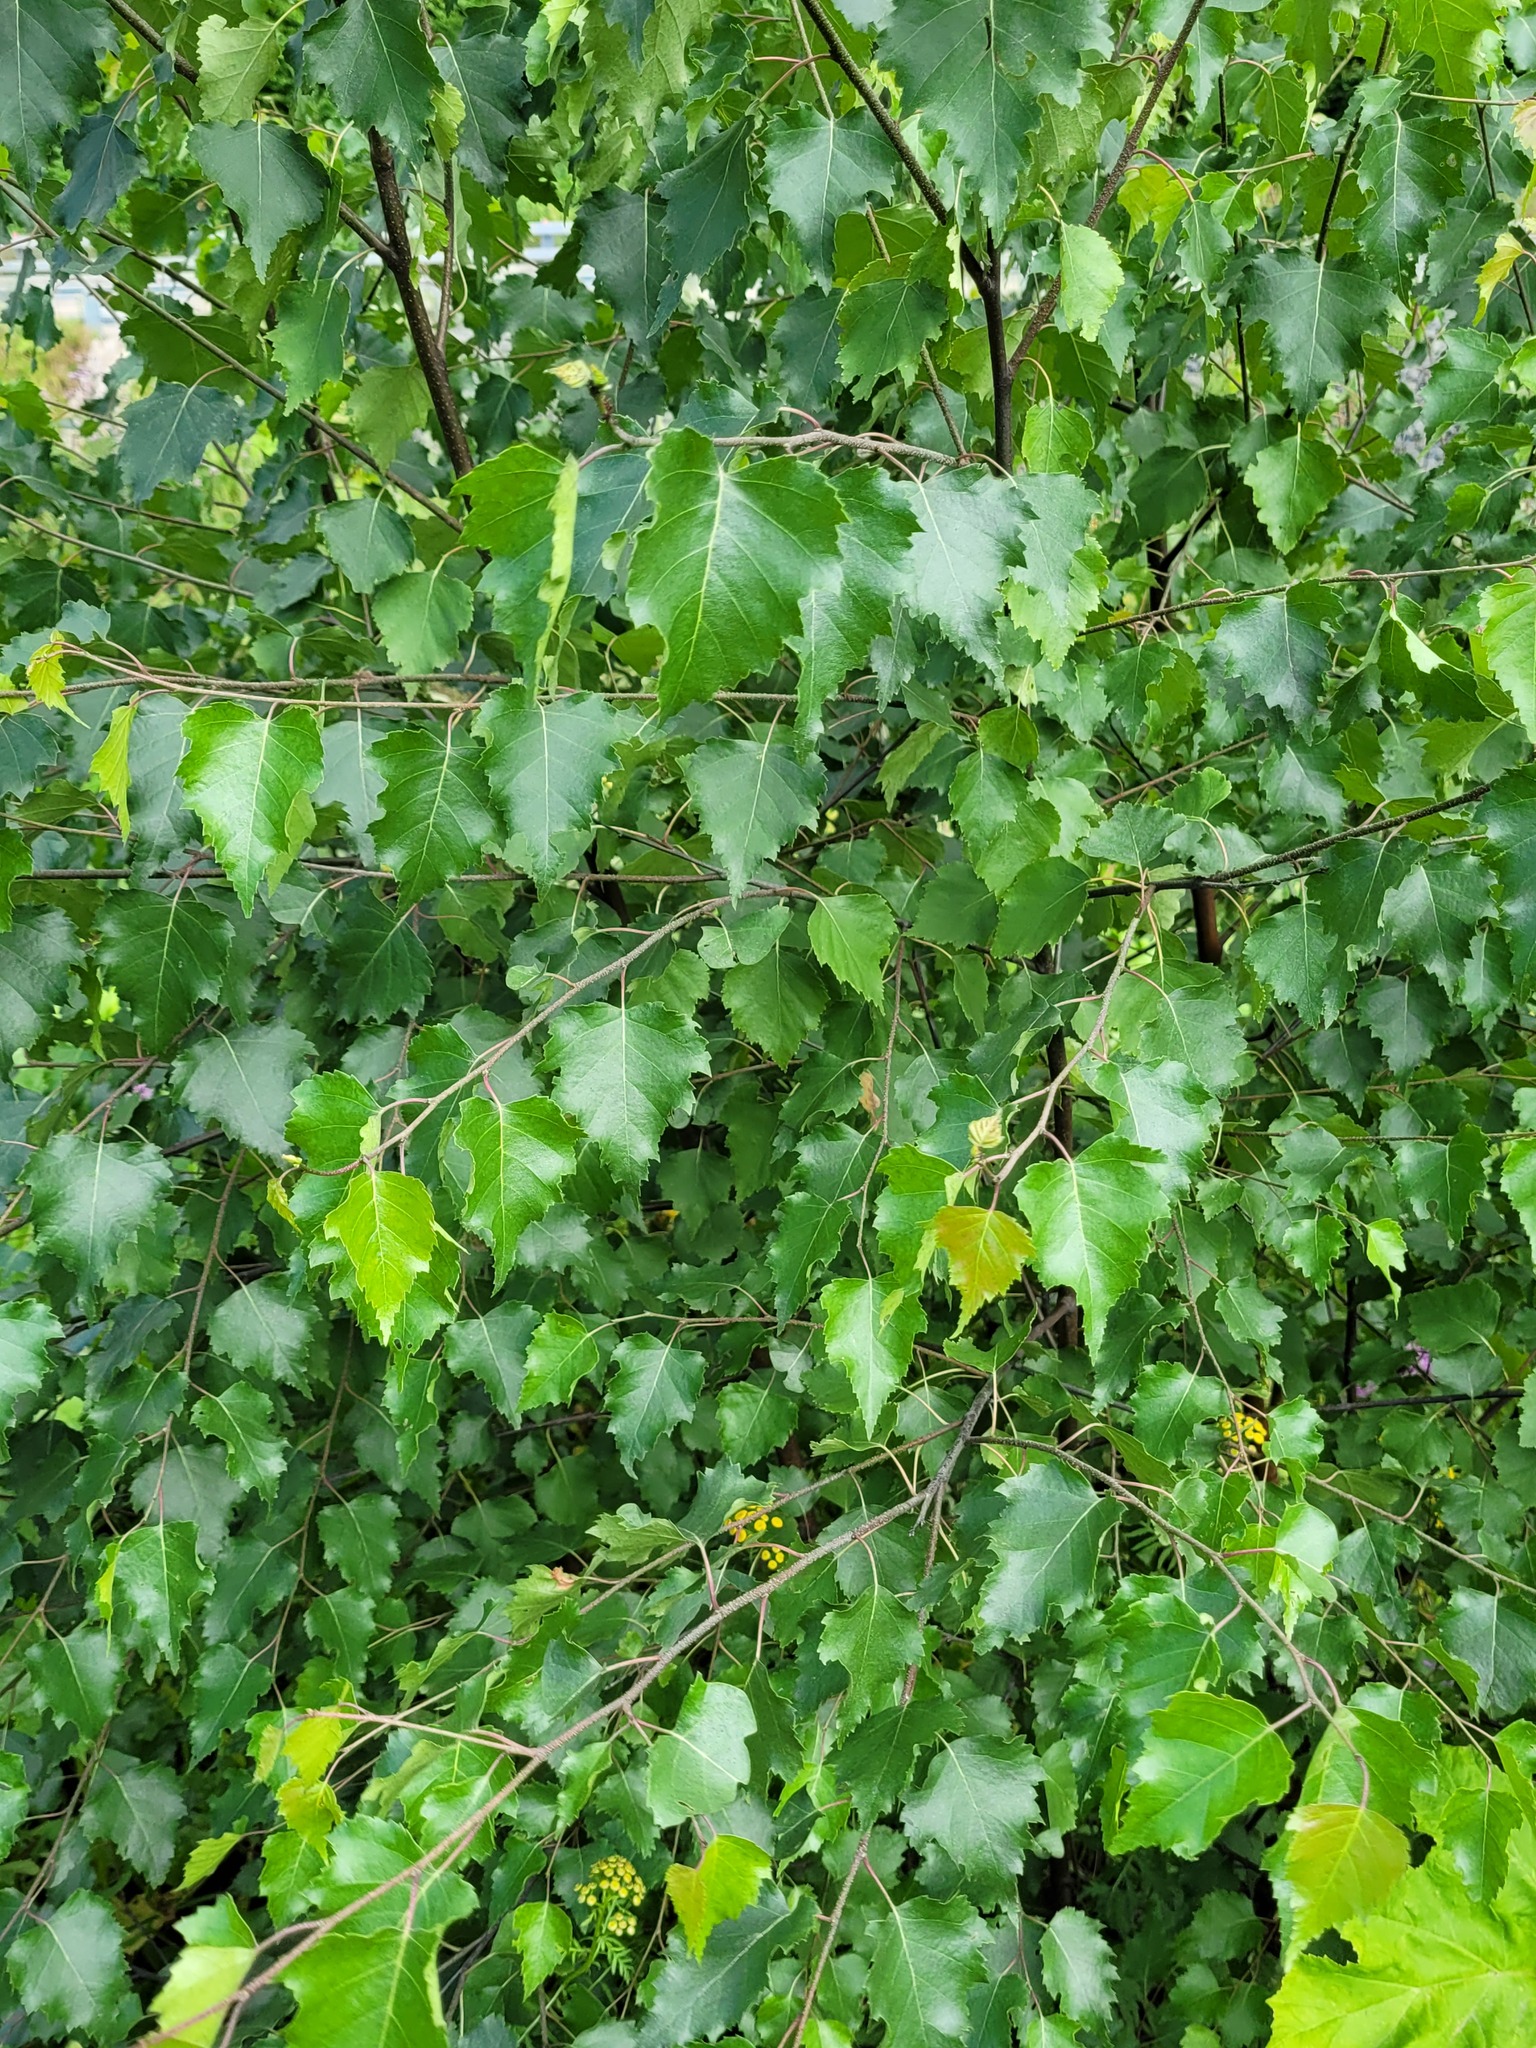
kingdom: Plantae
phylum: Tracheophyta
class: Magnoliopsida
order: Fagales
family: Betulaceae
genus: Betula
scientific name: Betula pendula
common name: Silver birch
